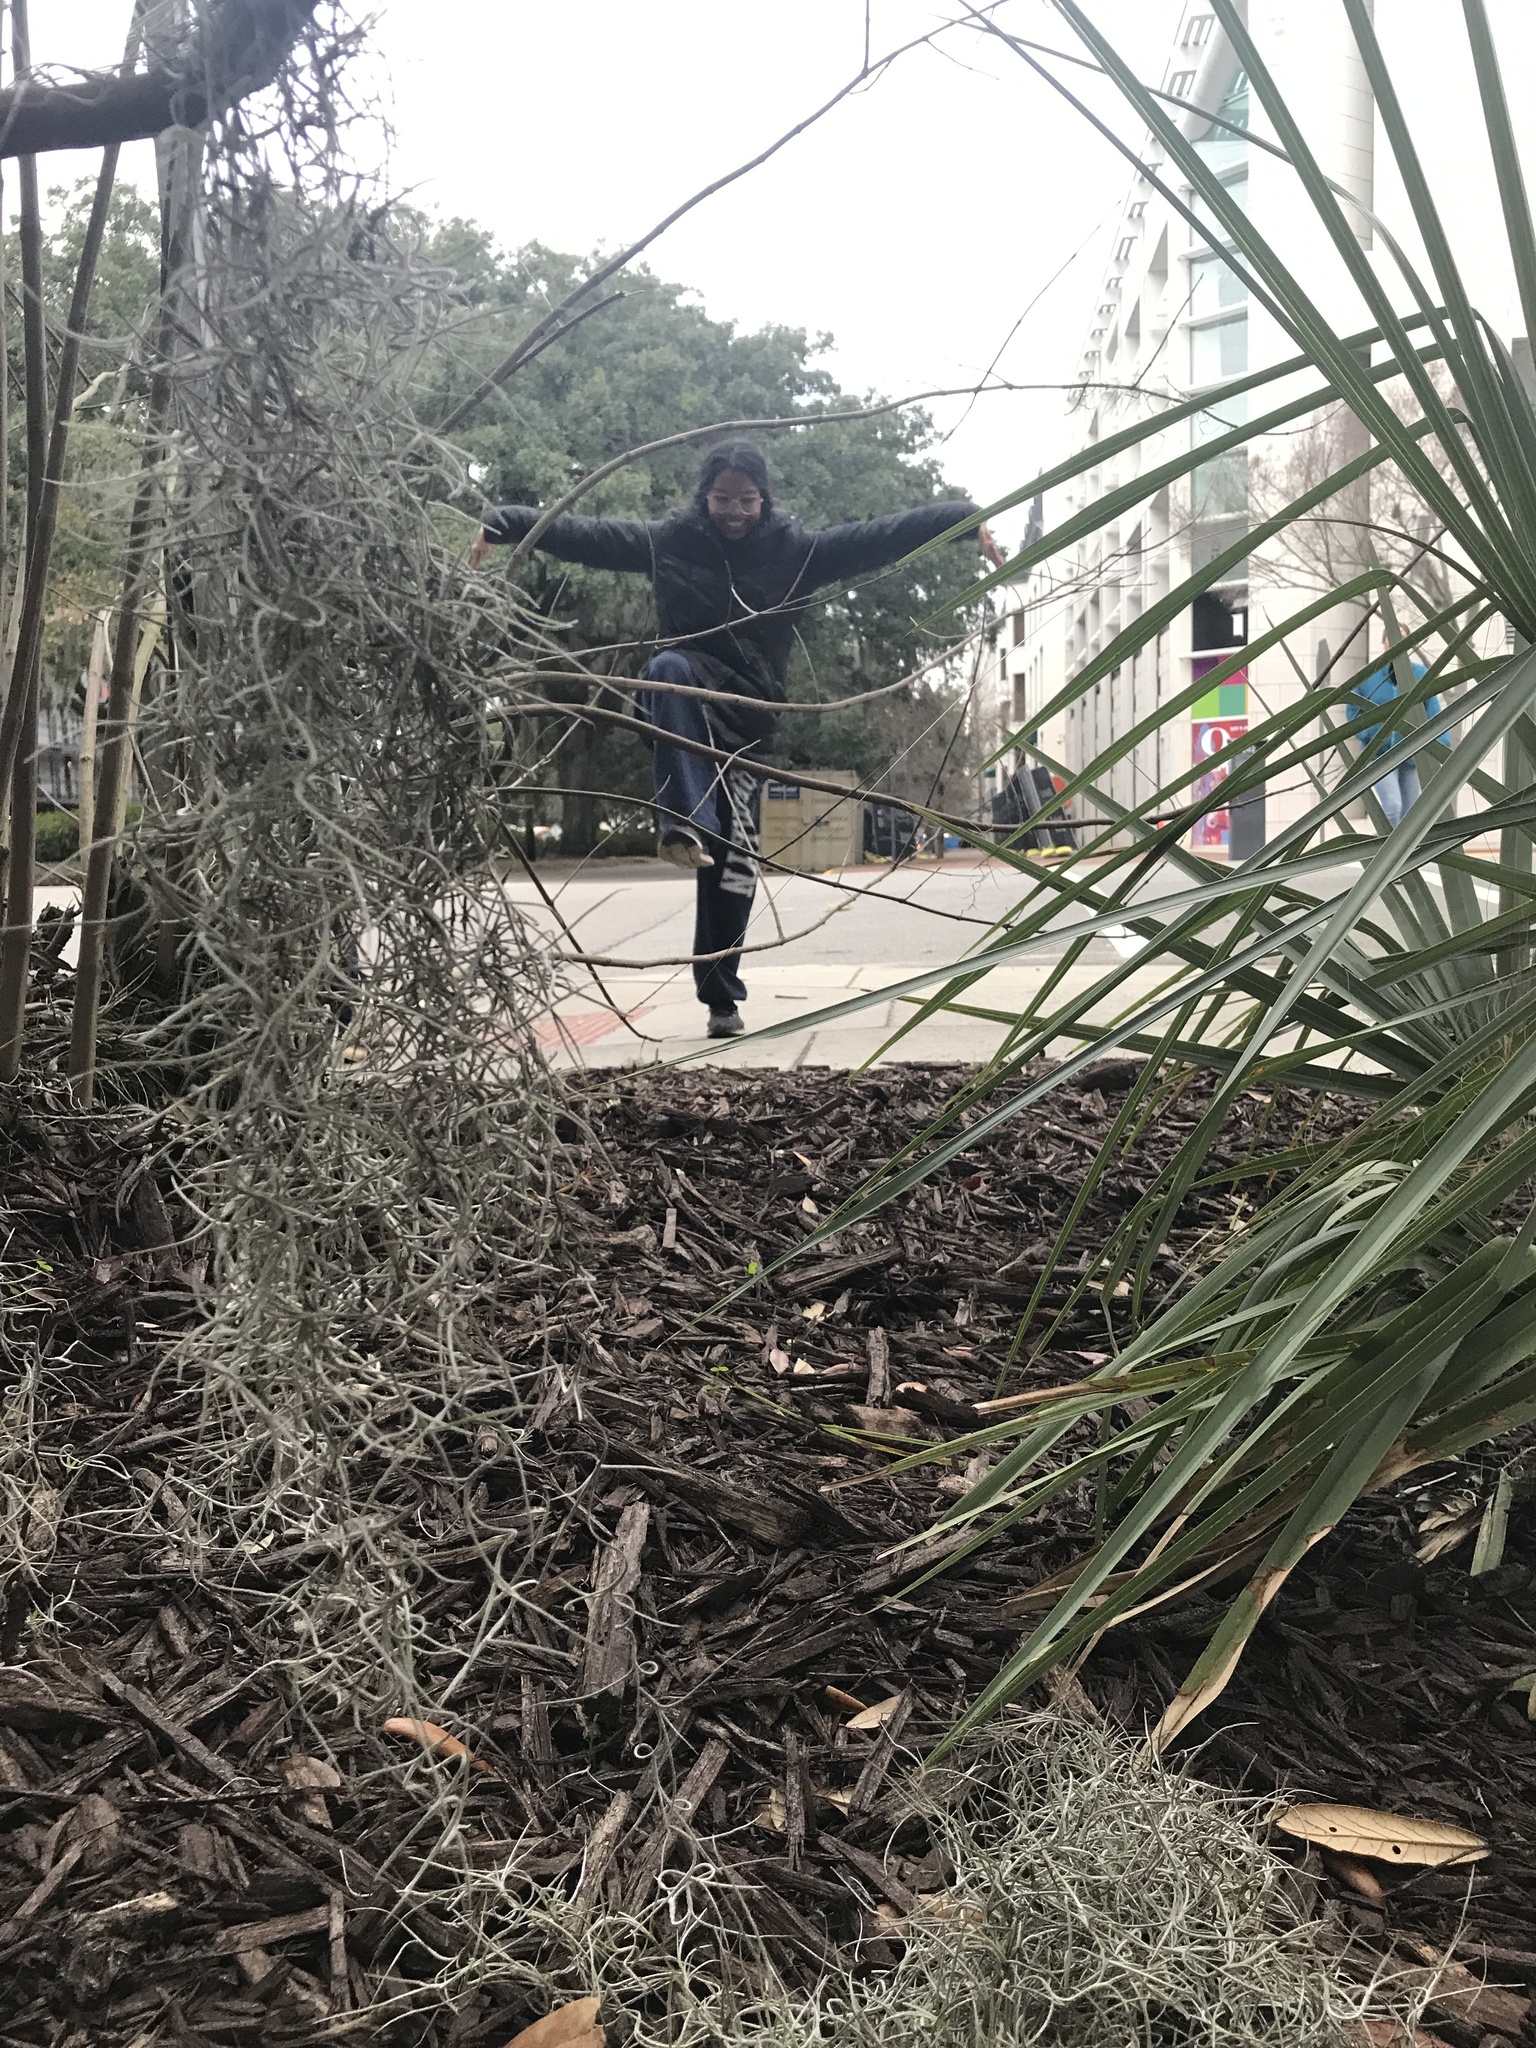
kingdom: Plantae
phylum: Tracheophyta
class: Liliopsida
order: Poales
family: Bromeliaceae
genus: Tillandsia
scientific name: Tillandsia usneoides
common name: Spanish moss
